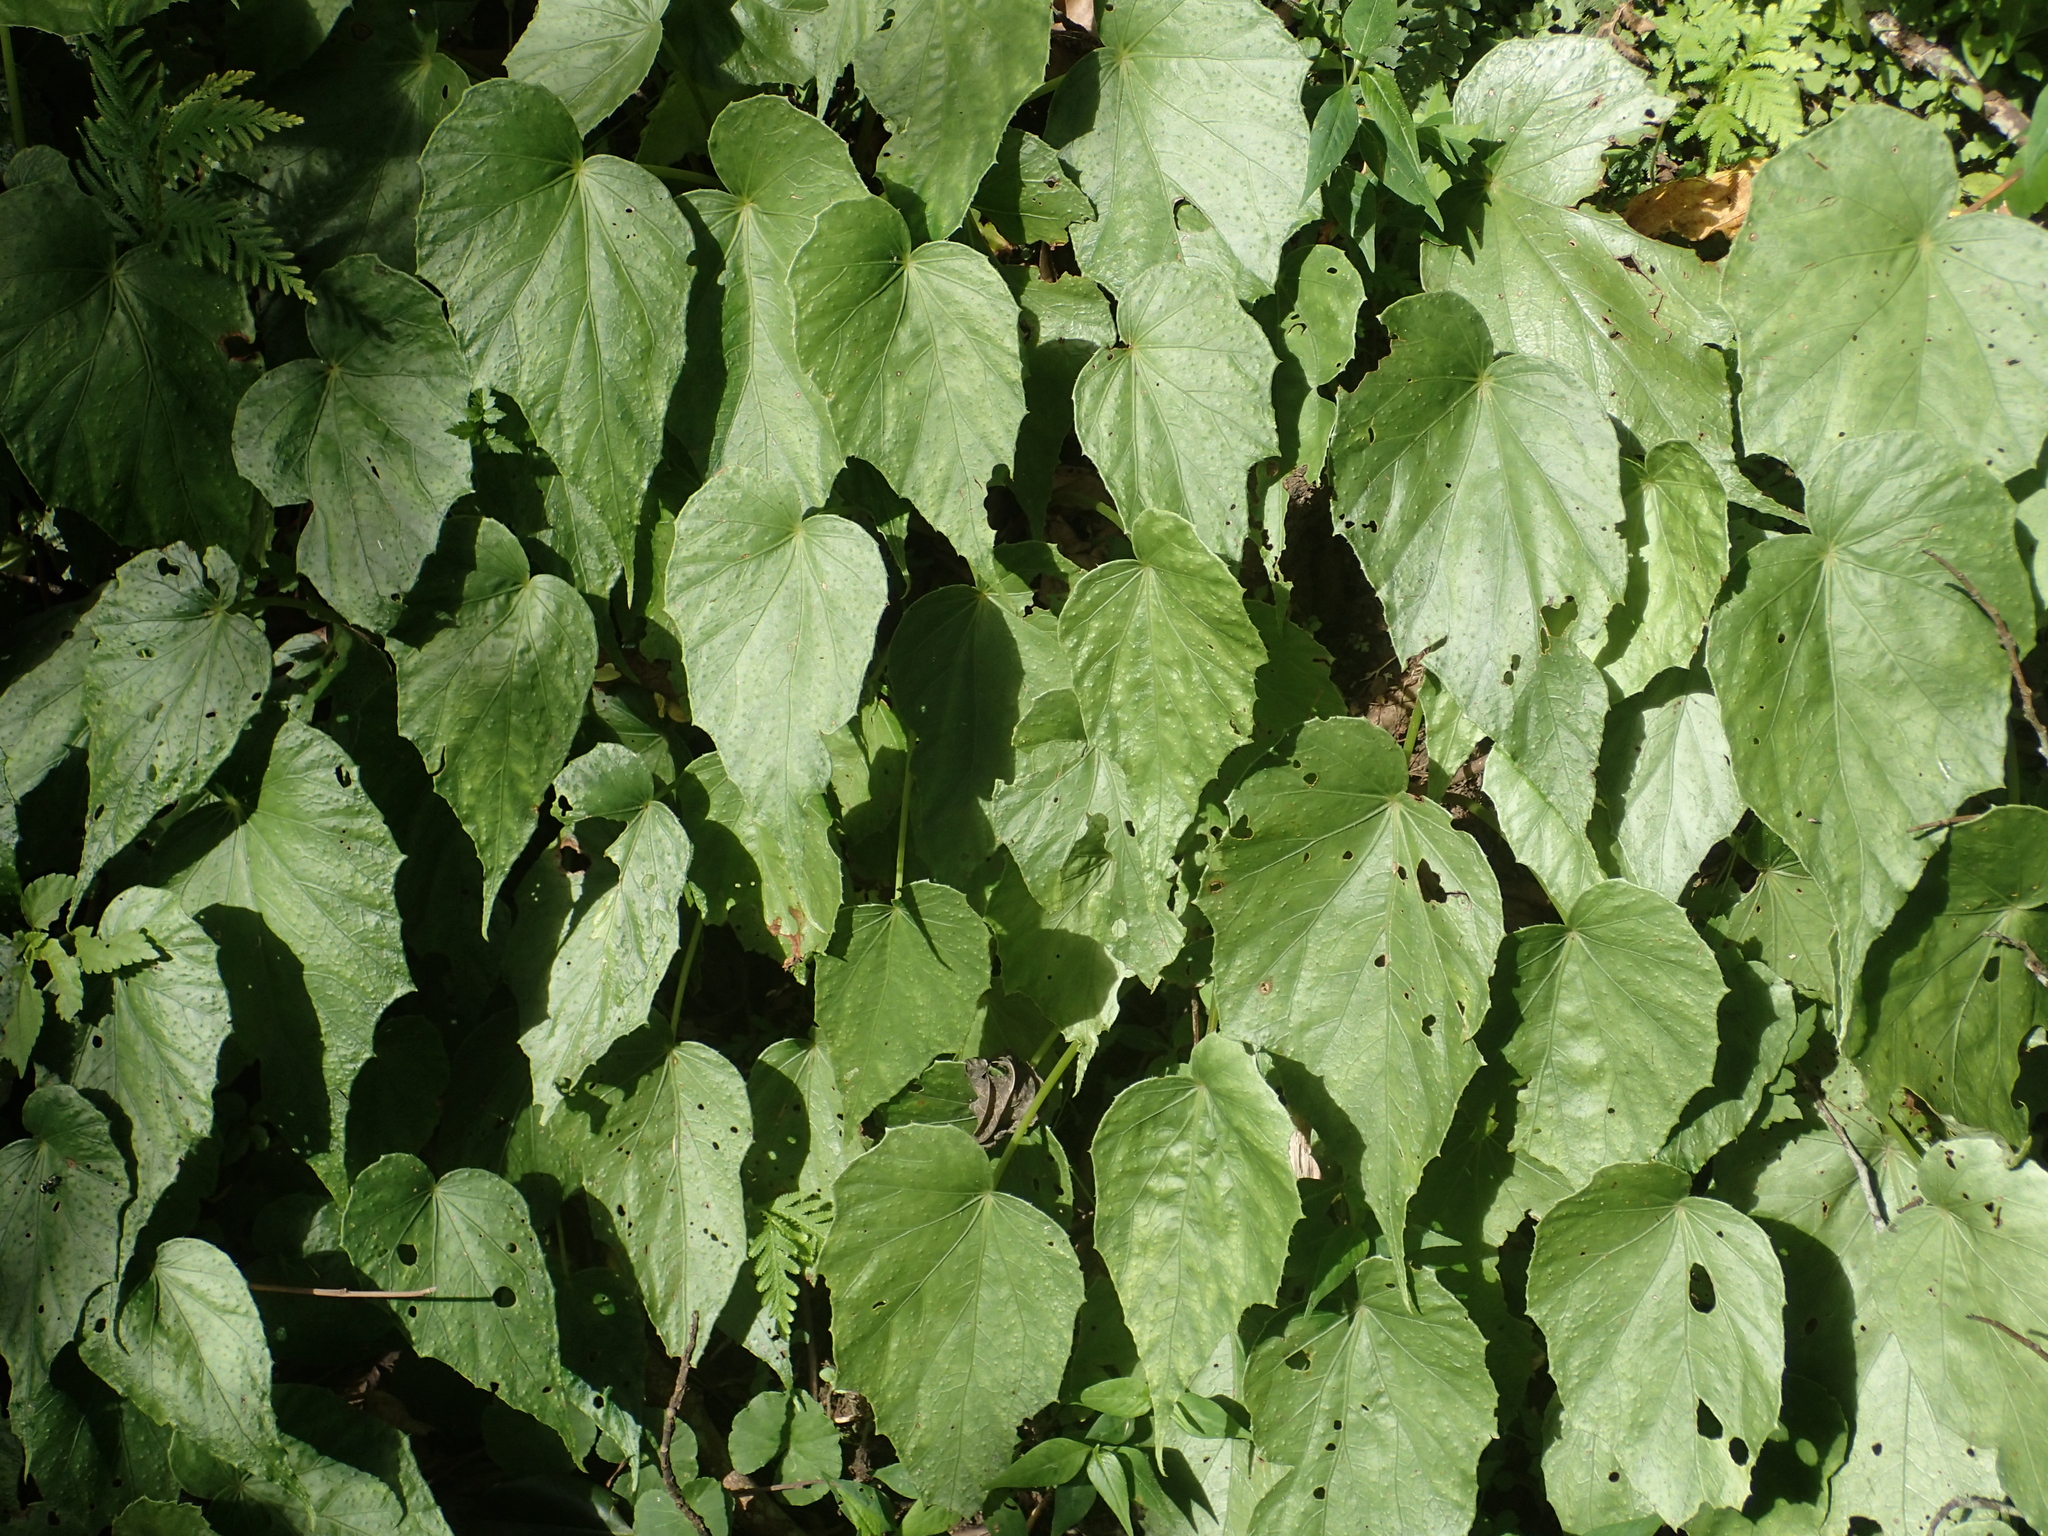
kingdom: Plantae
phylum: Tracheophyta
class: Magnoliopsida
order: Cucurbitales
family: Begoniaceae
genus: Begonia
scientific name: Begonia formosana
